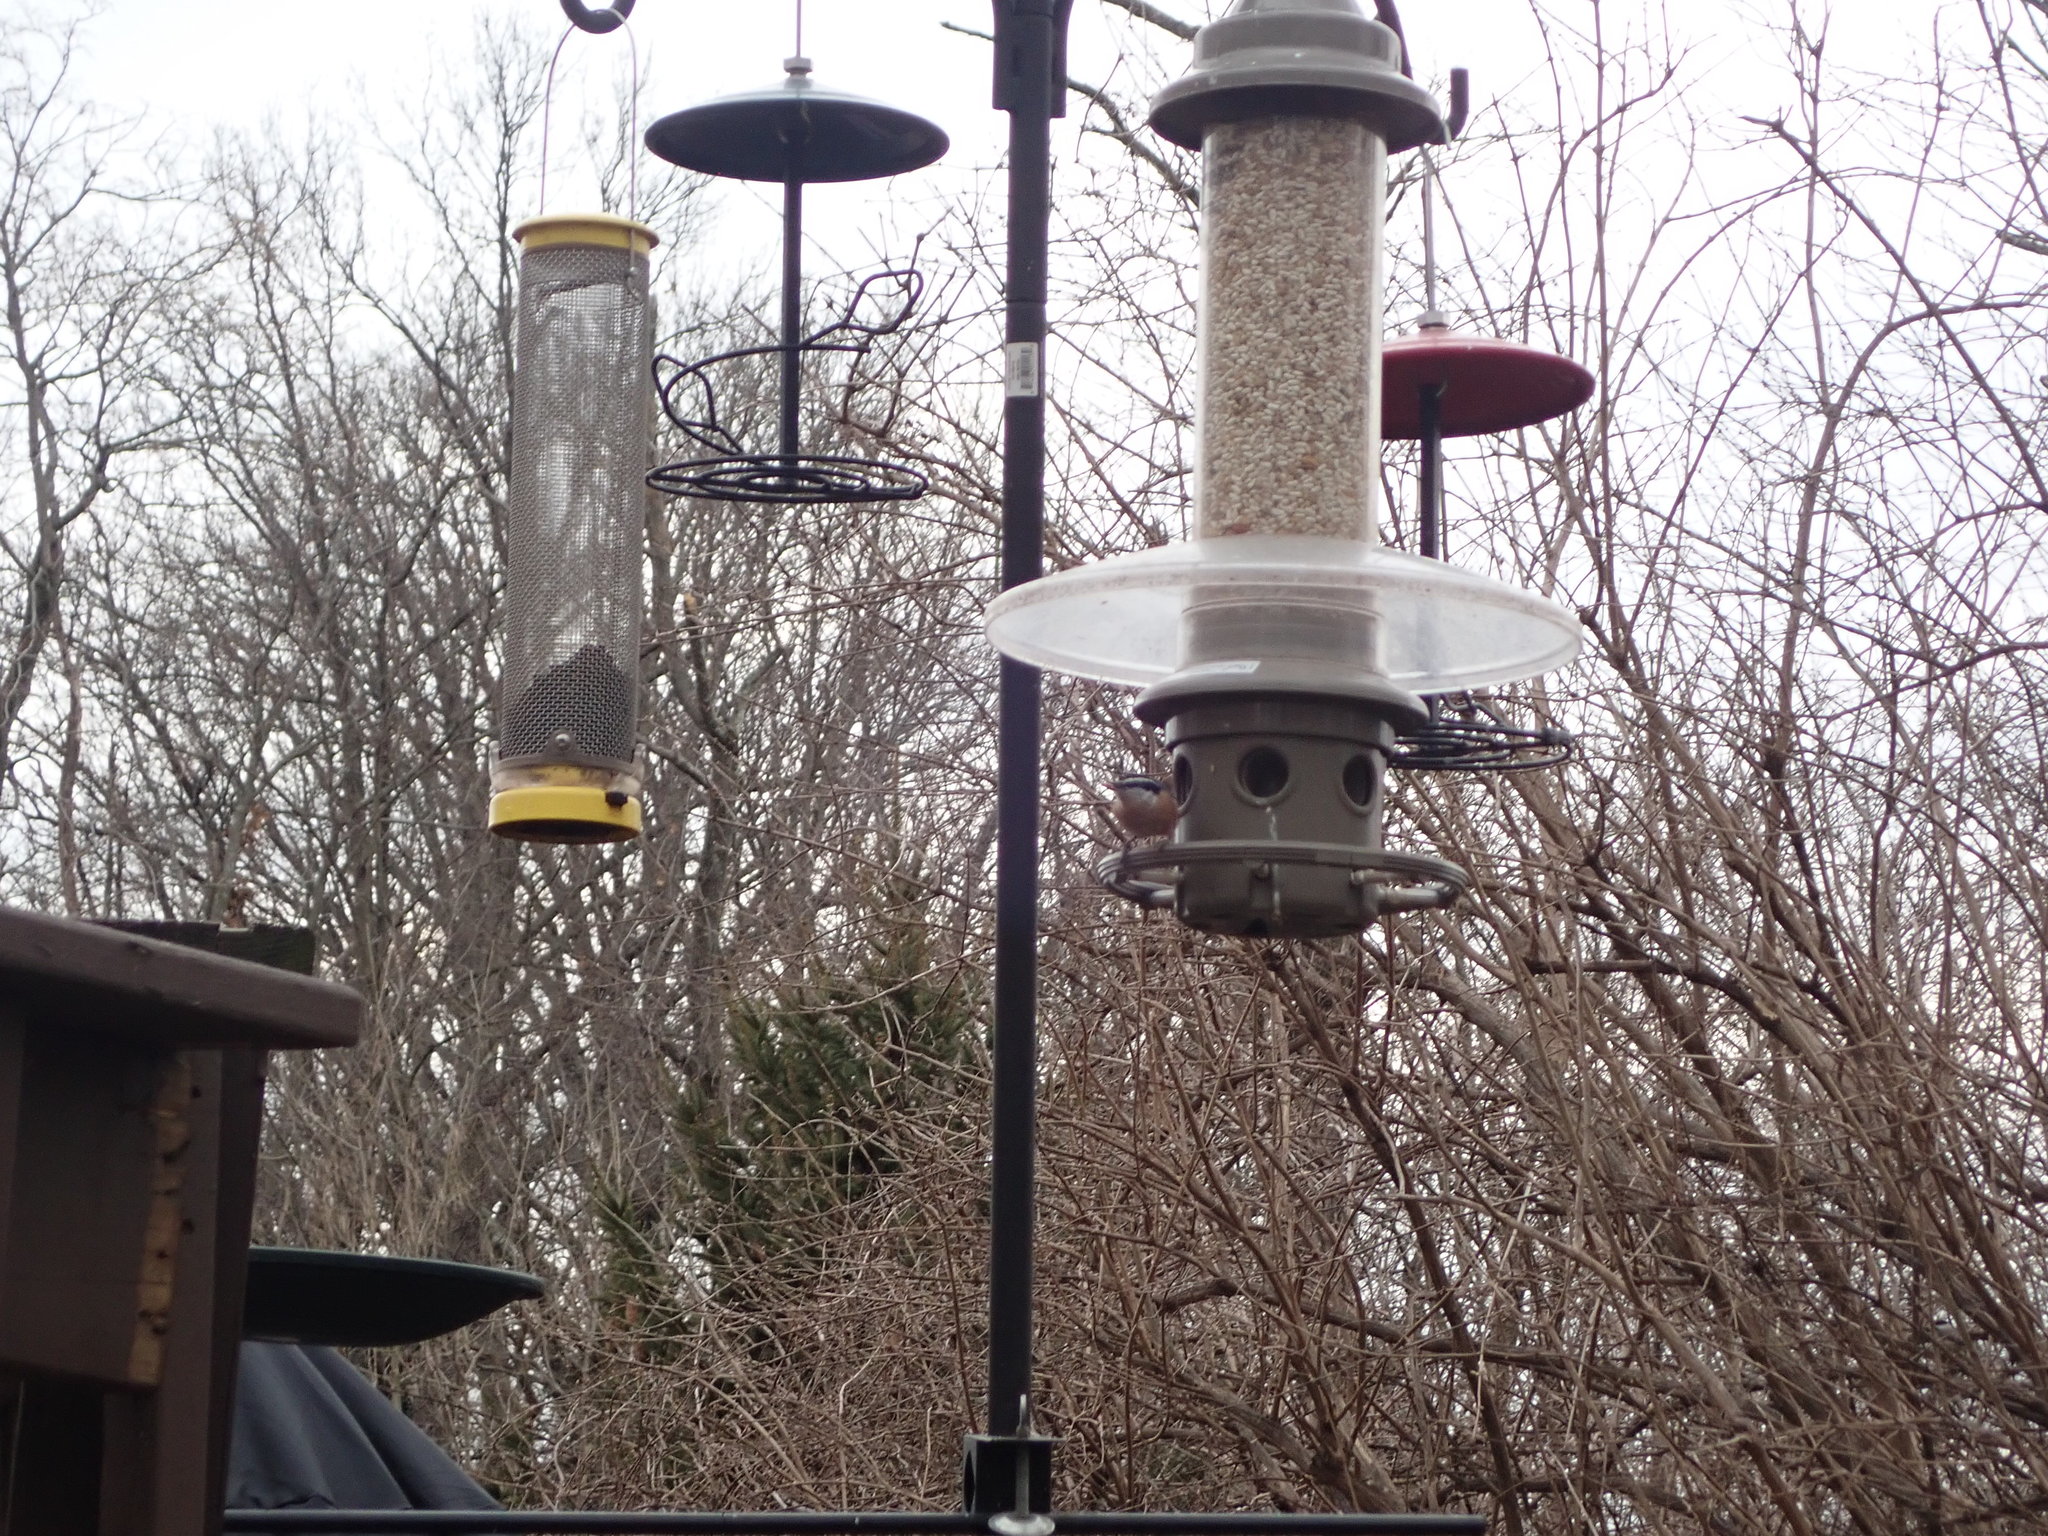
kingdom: Animalia
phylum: Chordata
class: Aves
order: Passeriformes
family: Sittidae
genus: Sitta
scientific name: Sitta canadensis
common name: Red-breasted nuthatch
